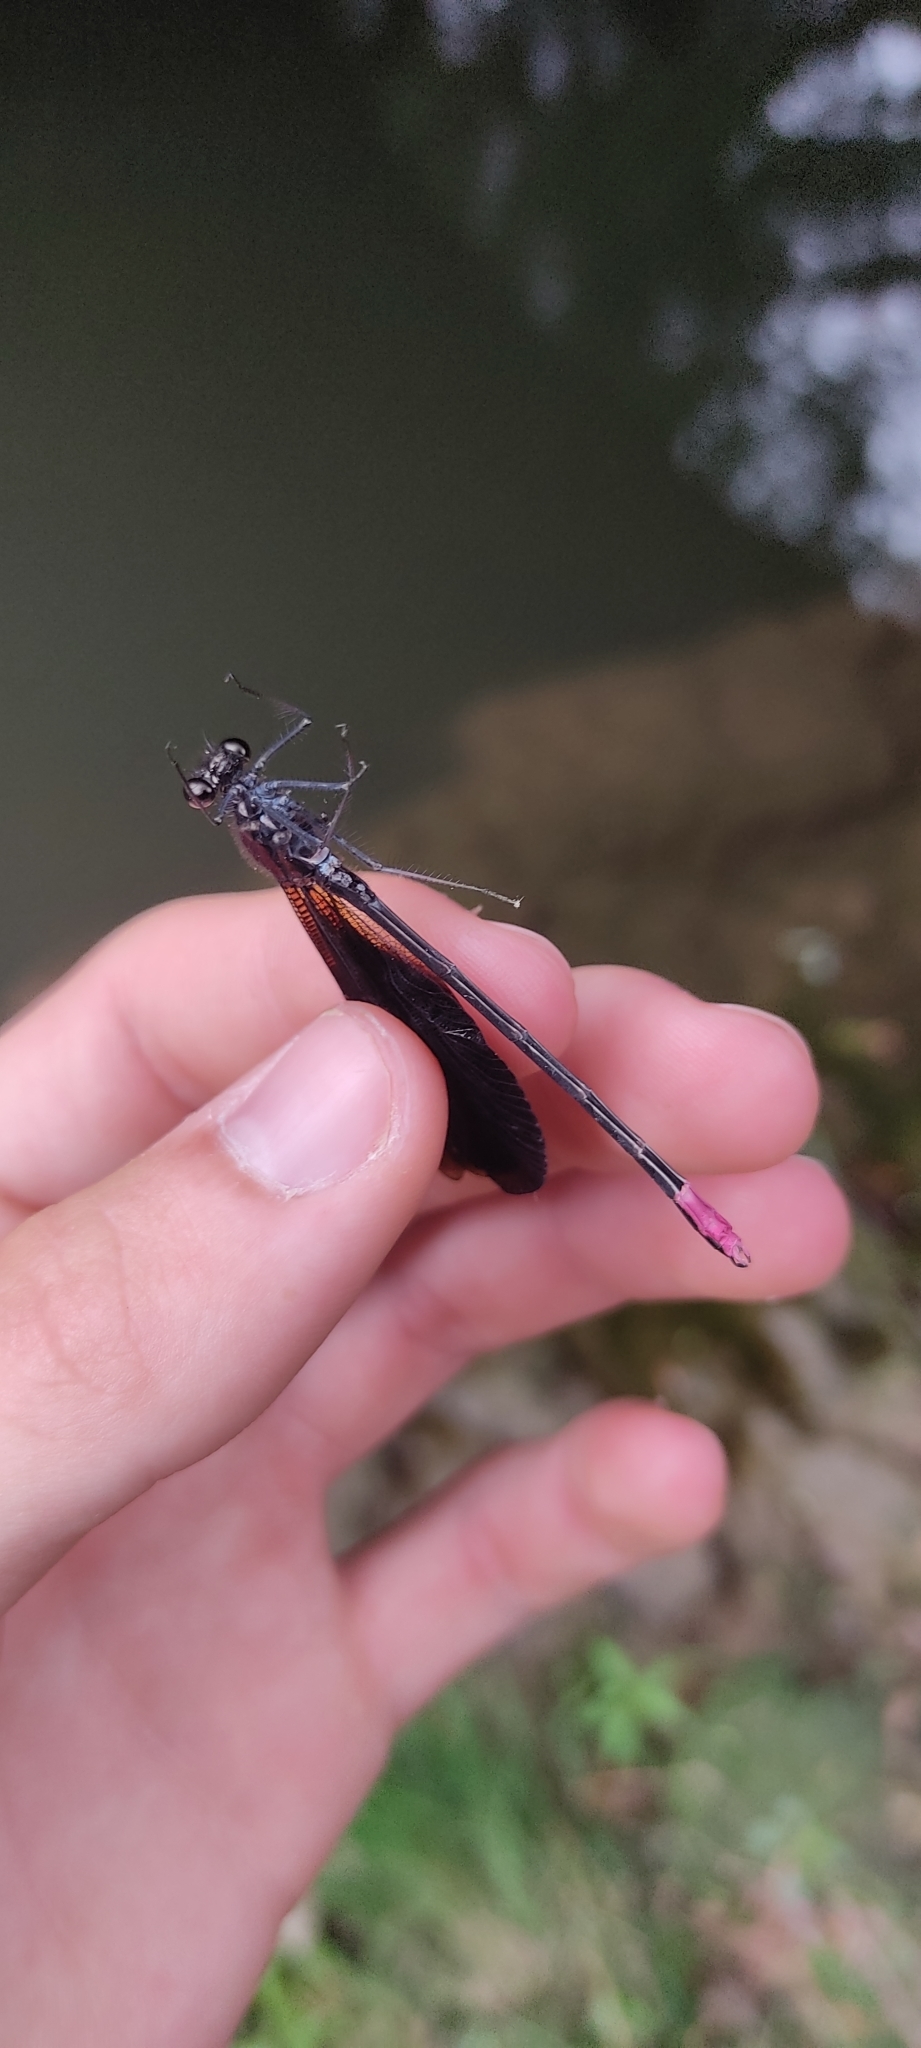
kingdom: Animalia
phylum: Arthropoda
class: Insecta
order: Odonata
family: Calopterygidae
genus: Calopteryx
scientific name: Calopteryx haemorrhoidalis
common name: Copper demoiselle
